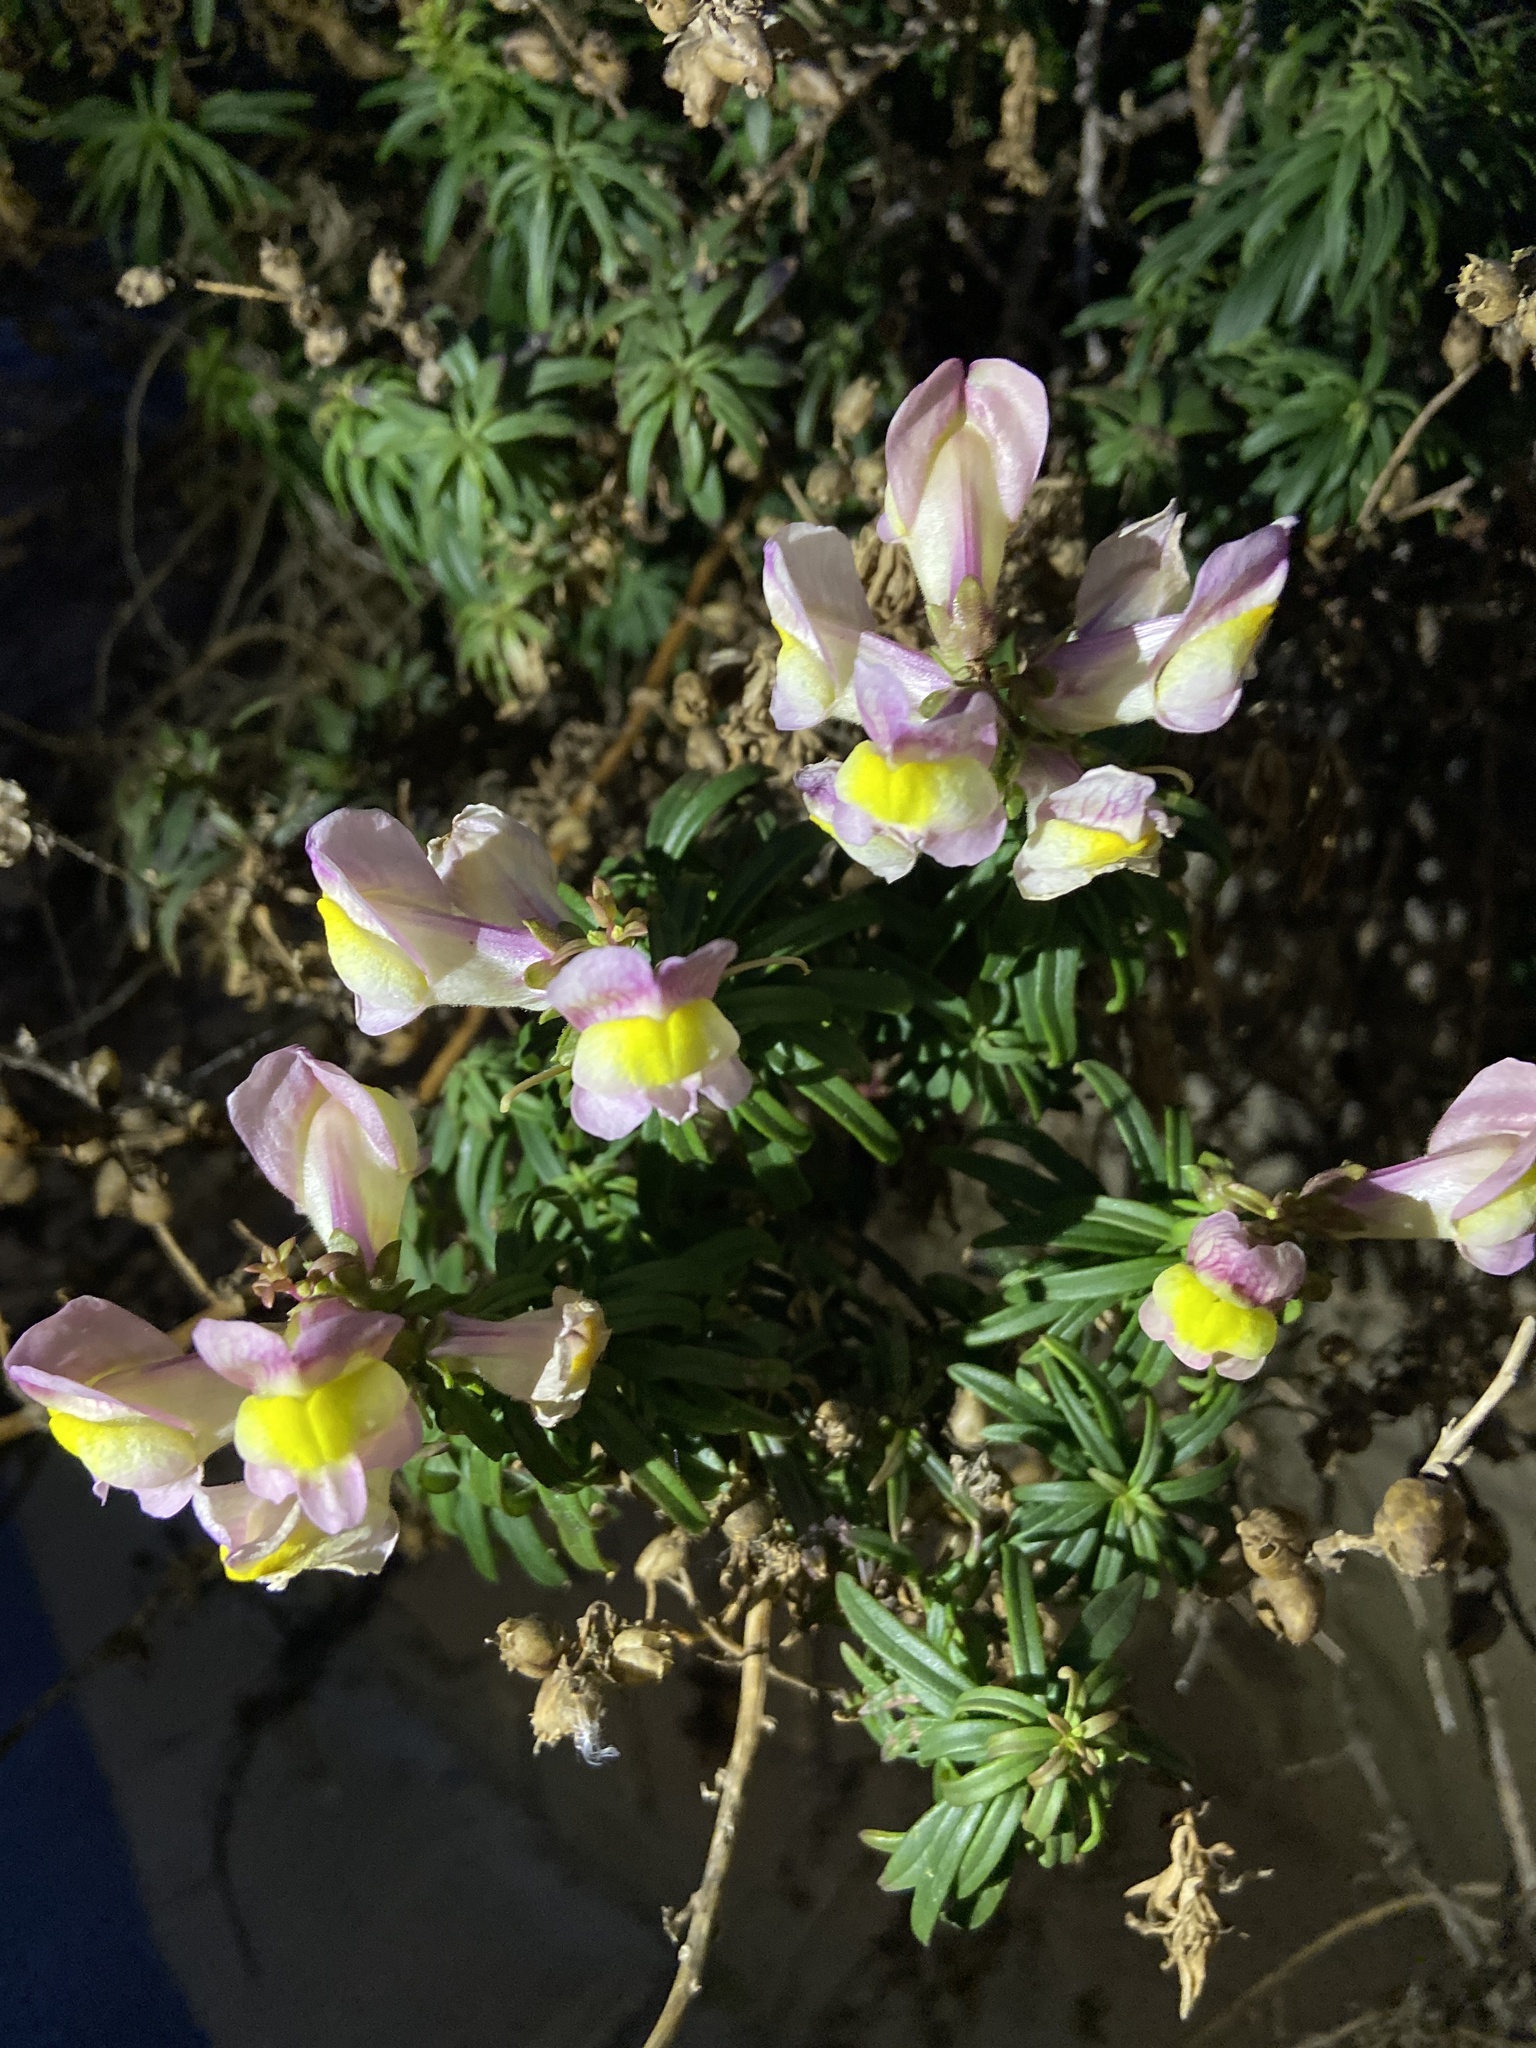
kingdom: Plantae
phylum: Tracheophyta
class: Magnoliopsida
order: Lamiales
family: Plantaginaceae
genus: Antirrhinum
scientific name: Antirrhinum siculum
